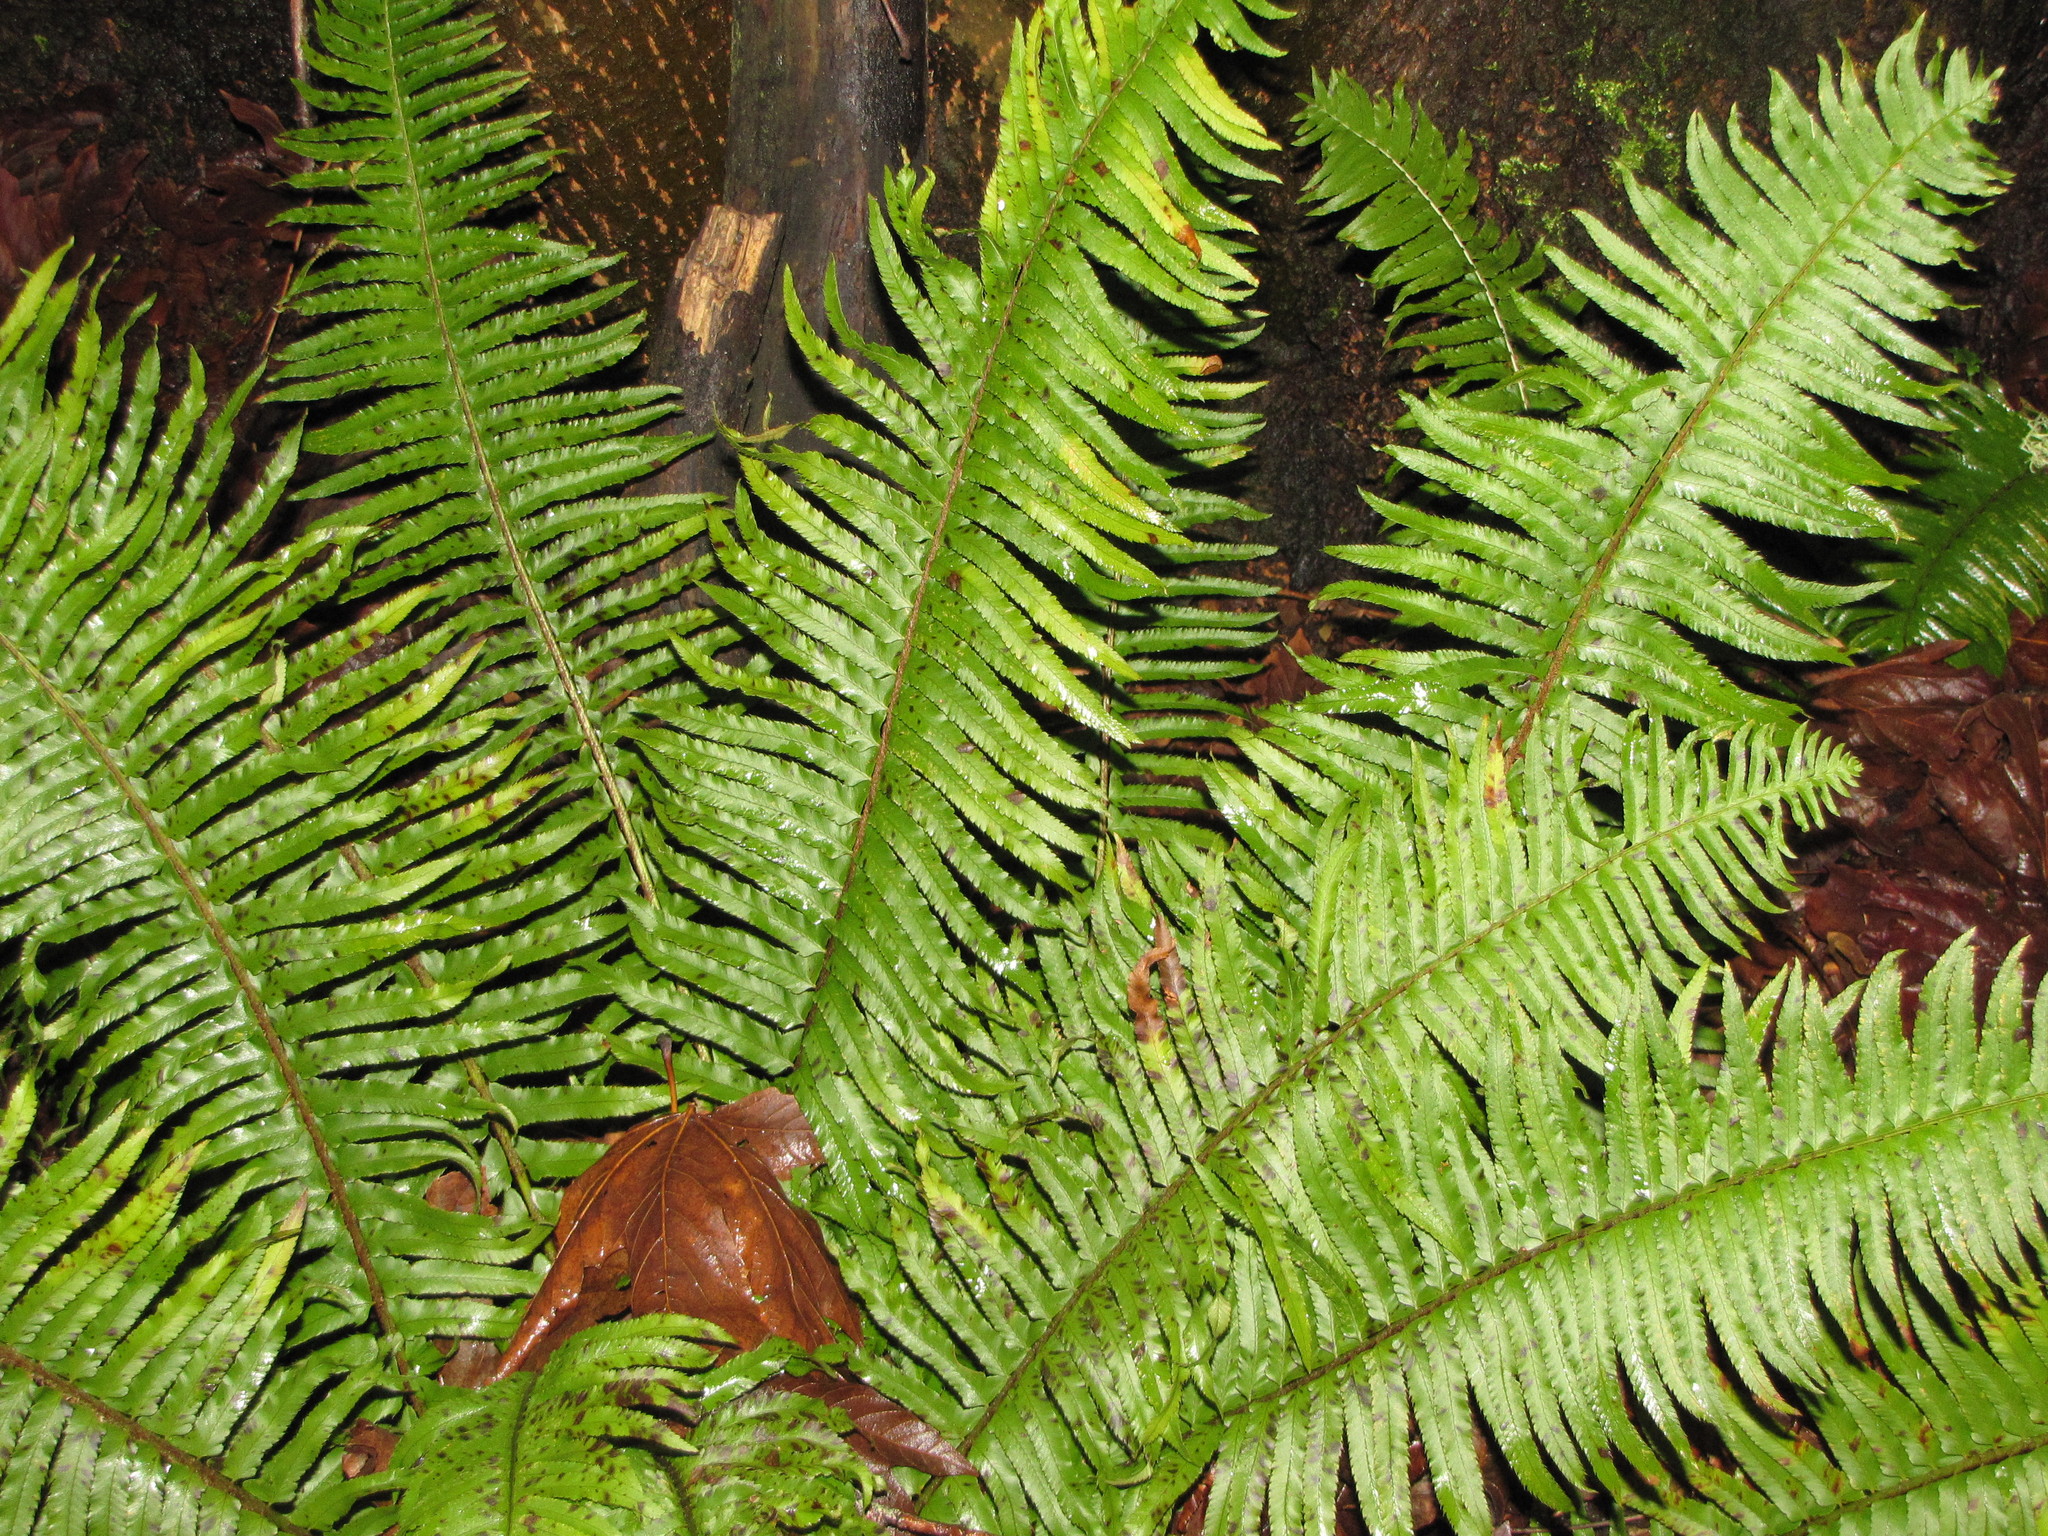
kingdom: Plantae
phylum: Tracheophyta
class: Polypodiopsida
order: Polypodiales
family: Dryopteridaceae
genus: Polystichum
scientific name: Polystichum munitum
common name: Western sword-fern
